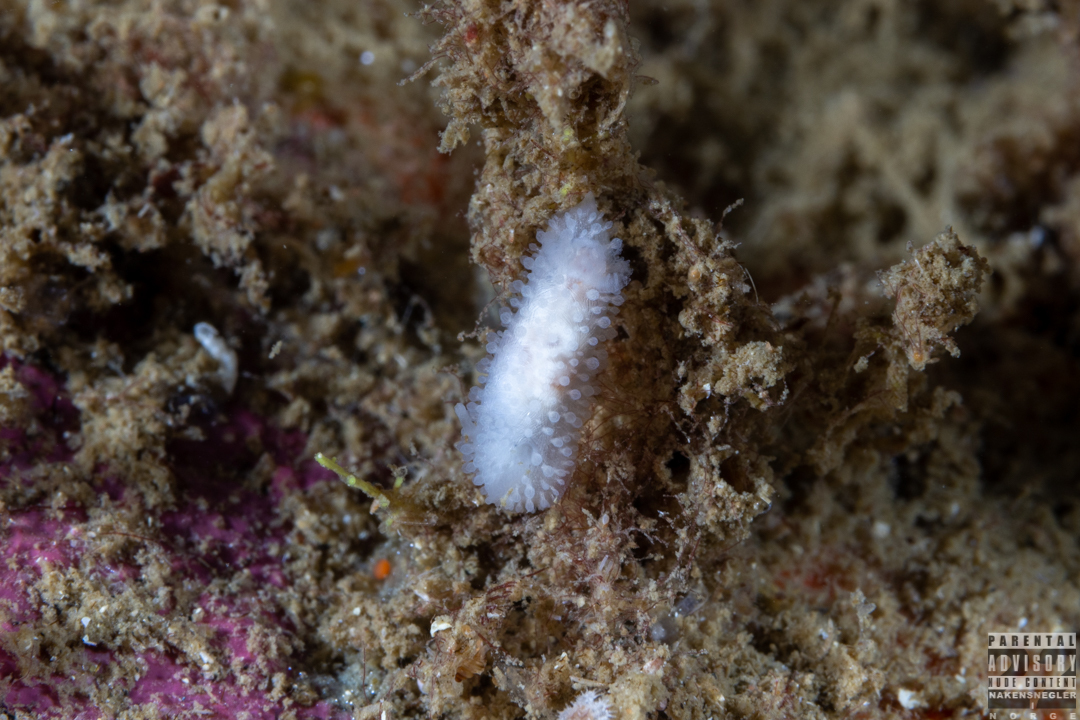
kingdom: Animalia
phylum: Mollusca
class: Gastropoda
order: Nudibranchia
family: Onchidorididae
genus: Onchidoris
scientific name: Onchidoris muricata
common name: Rough doris
